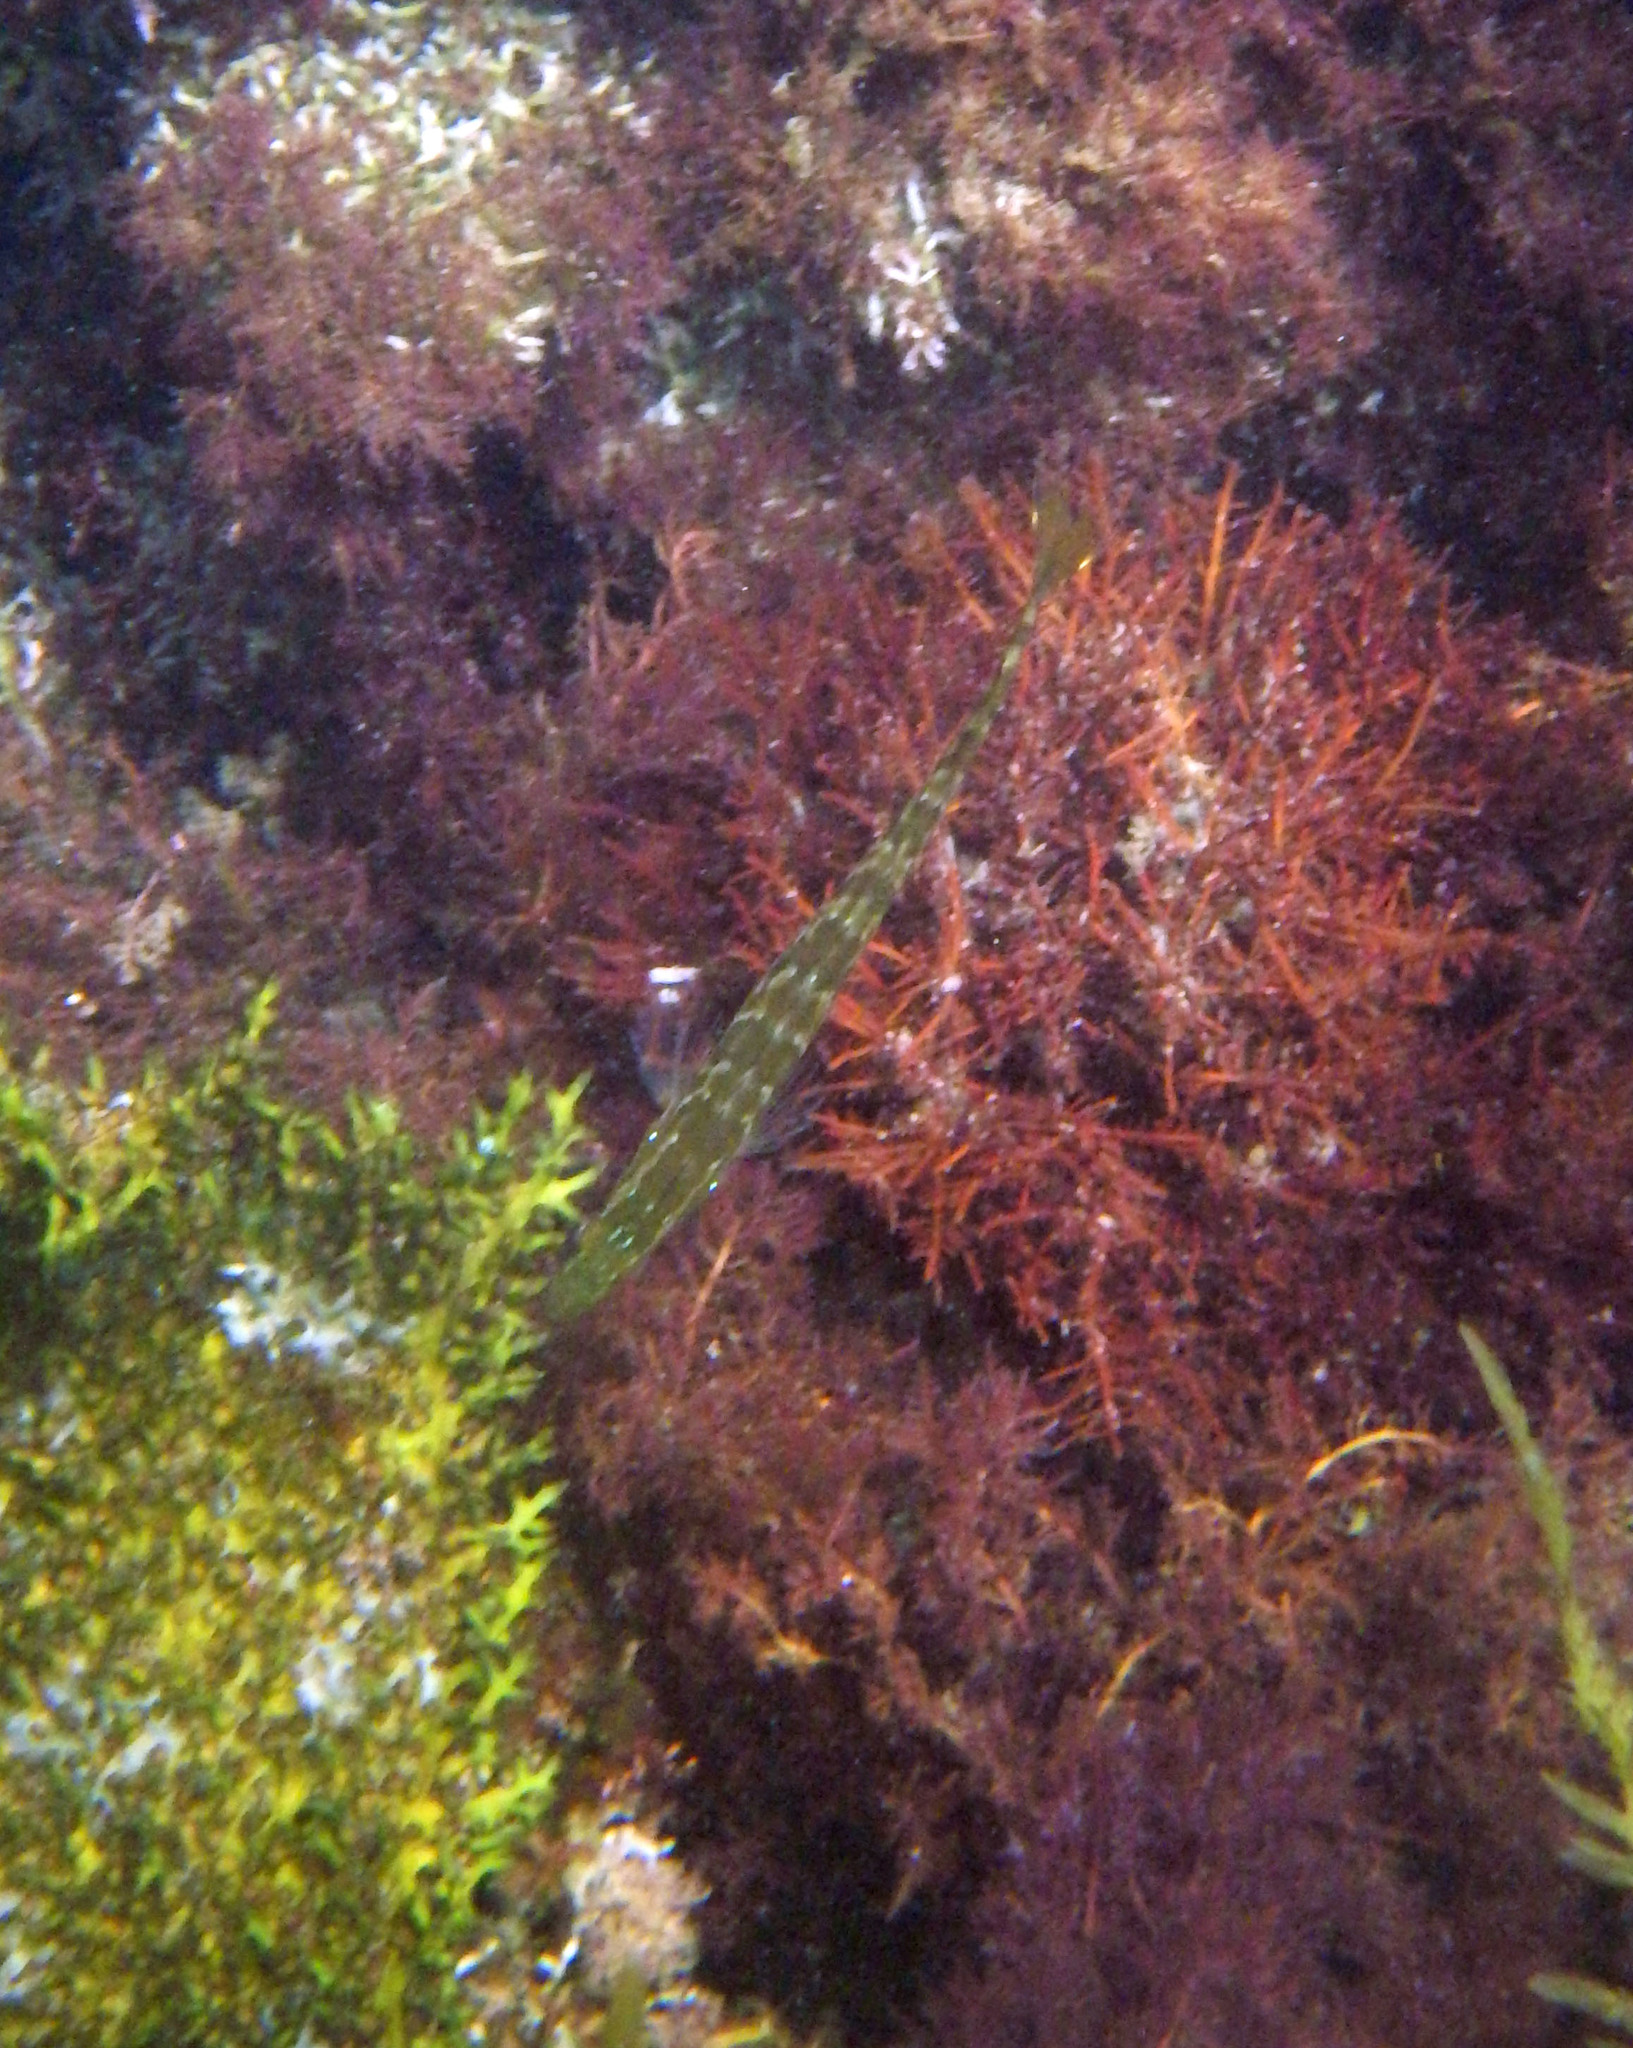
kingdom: Animalia
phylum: Chordata
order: Perciformes
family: Clinidae
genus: Heterostichus
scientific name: Heterostichus rostratus
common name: Giant kelpfish
